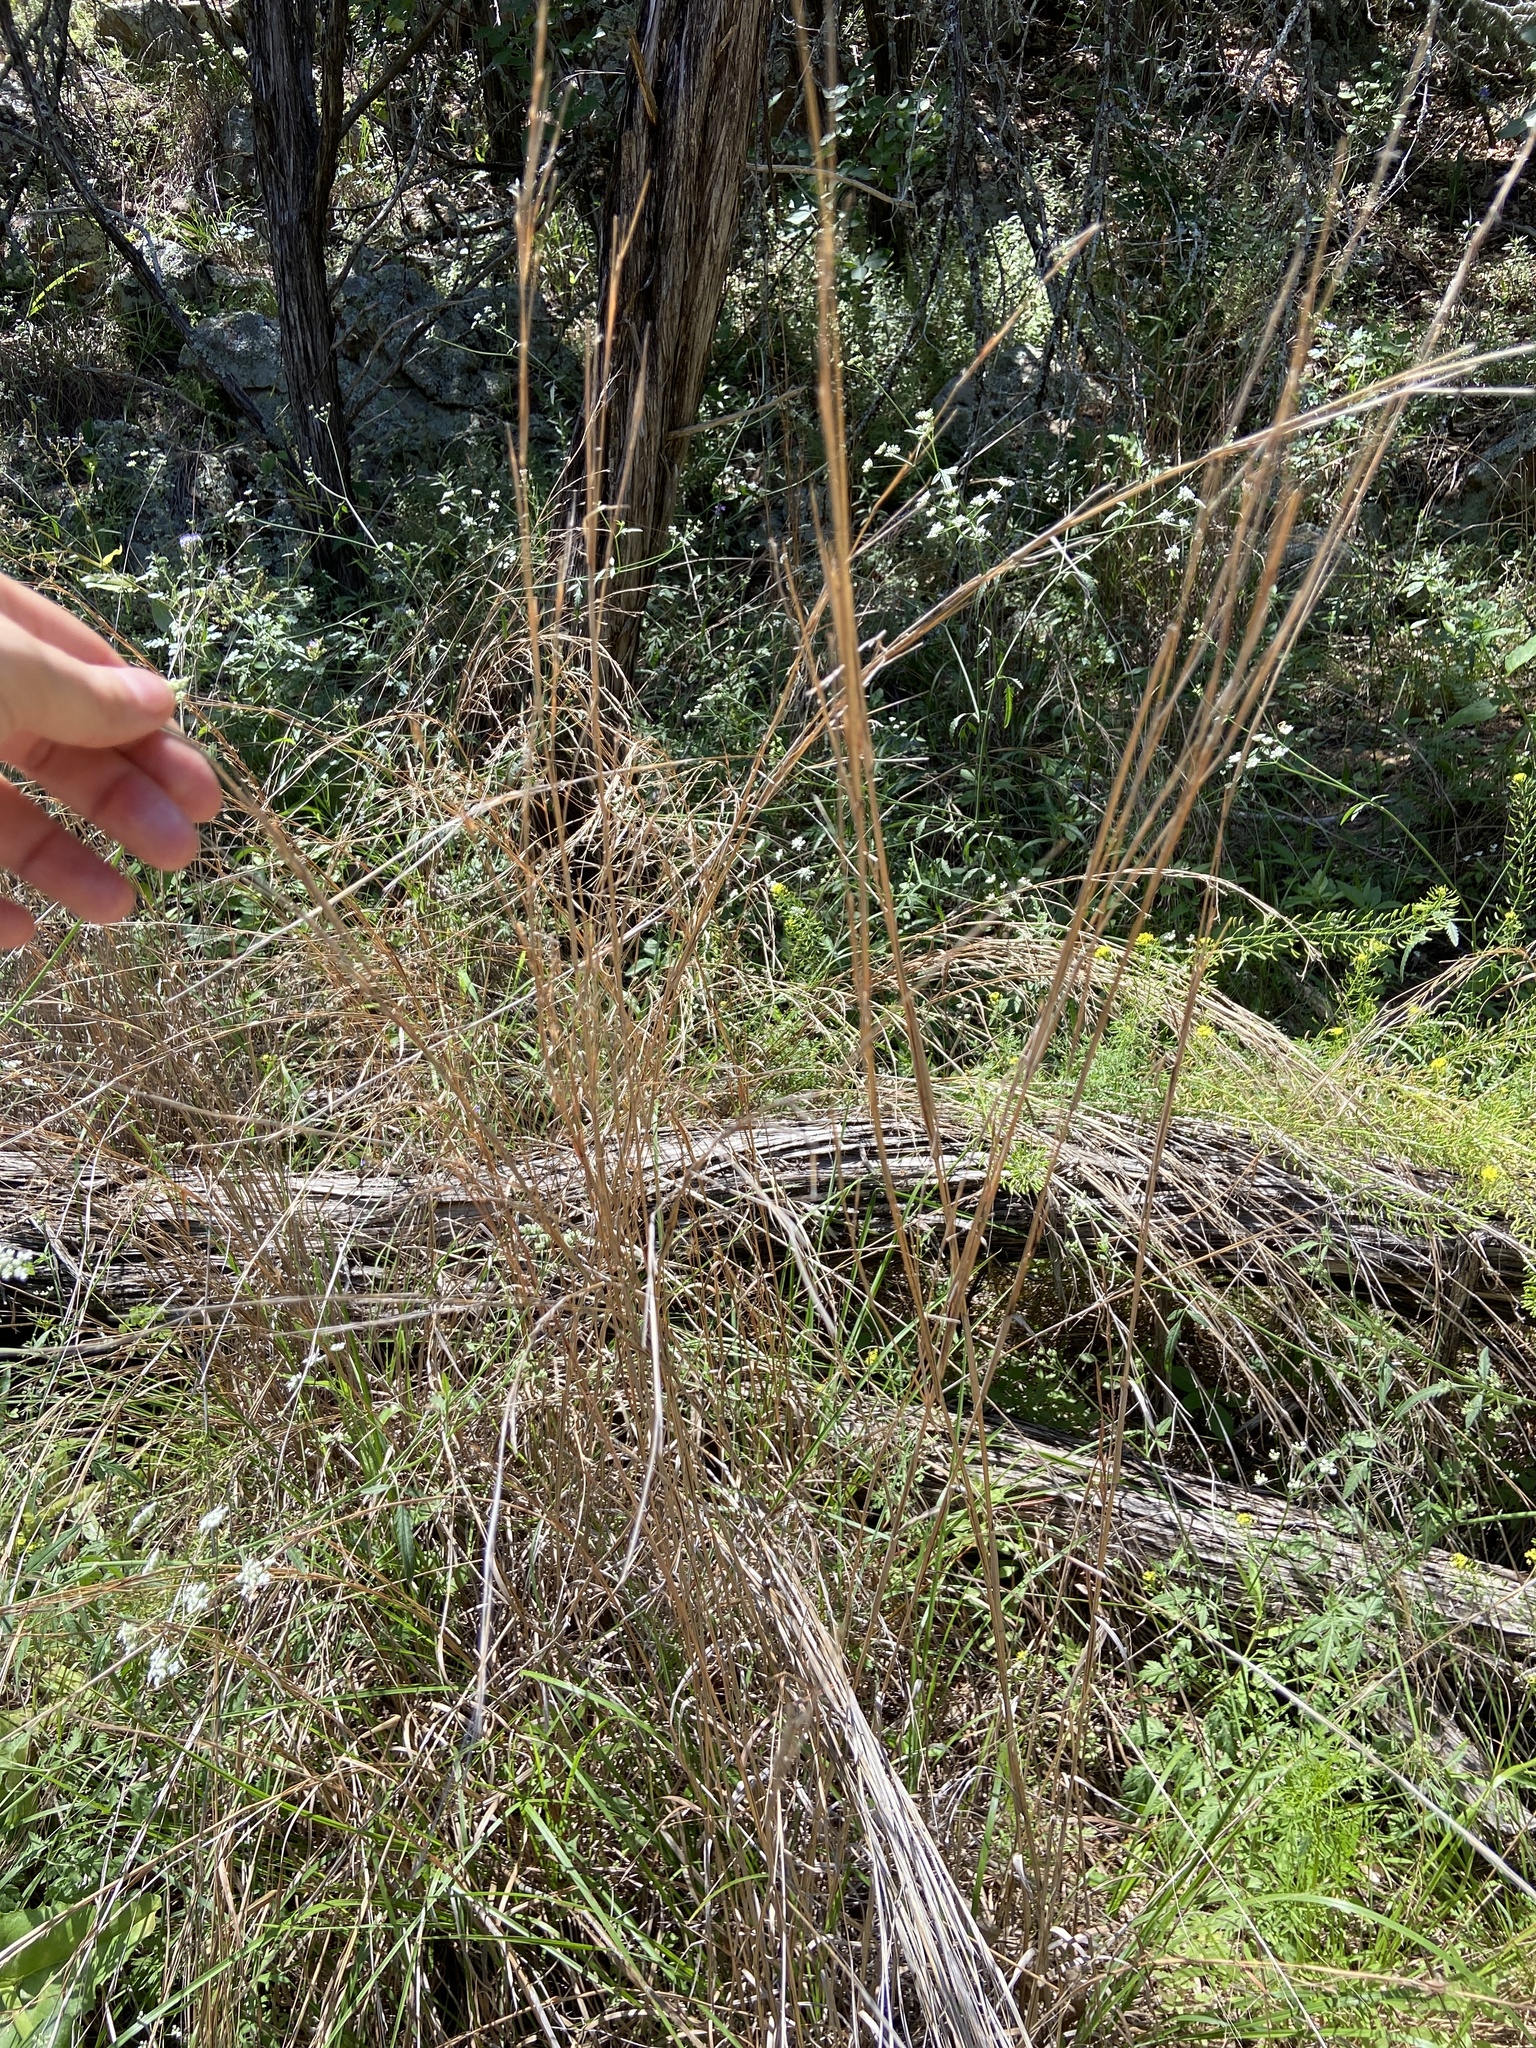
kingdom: Plantae
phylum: Tracheophyta
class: Liliopsida
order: Poales
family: Poaceae
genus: Schizachyrium
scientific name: Schizachyrium scoparium
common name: Little bluestem
